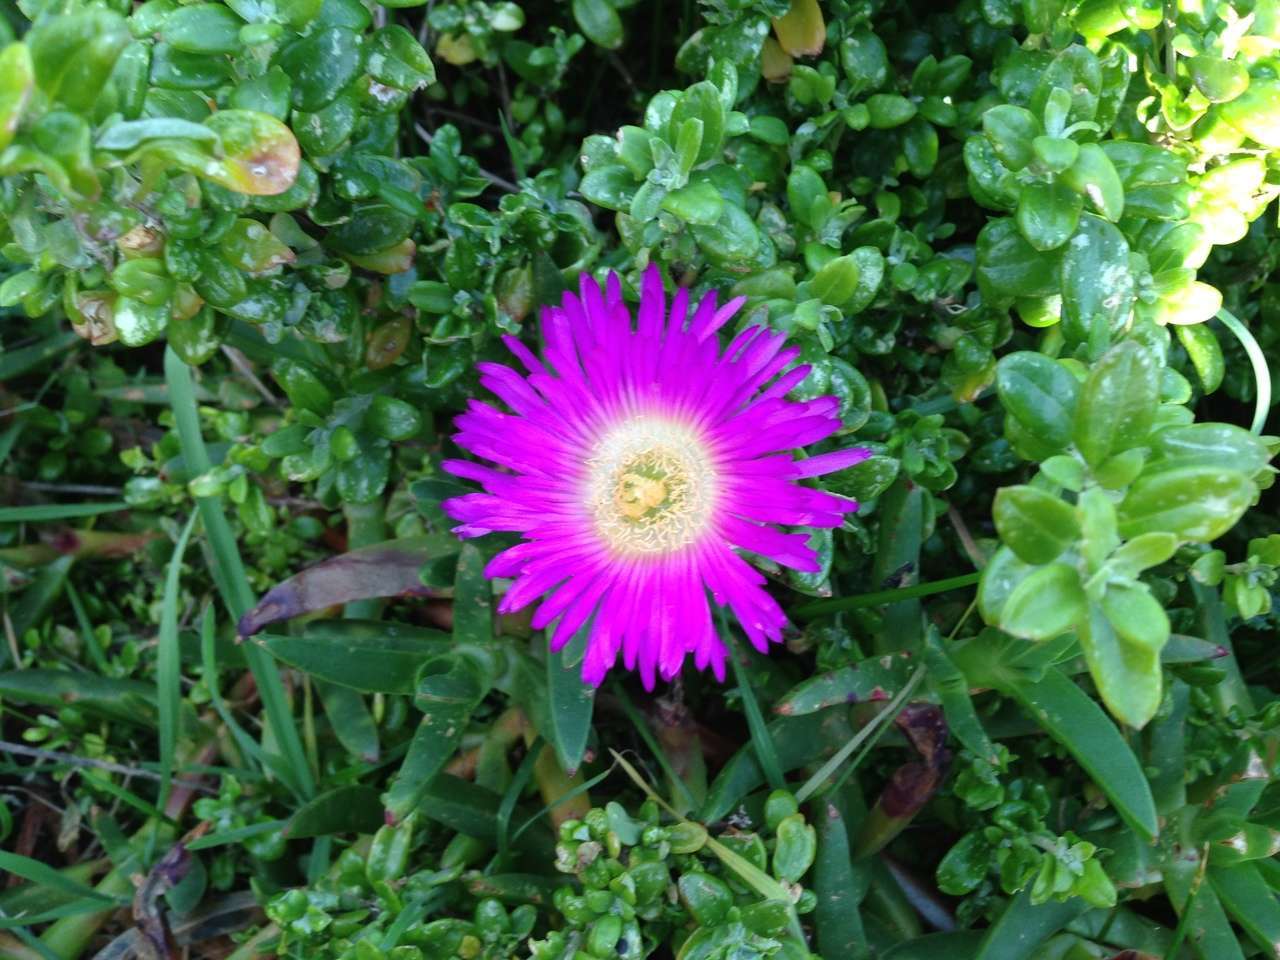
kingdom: Plantae
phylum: Tracheophyta
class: Magnoliopsida
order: Caryophyllales
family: Aizoaceae
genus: Carpobrotus
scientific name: Carpobrotus rossii
